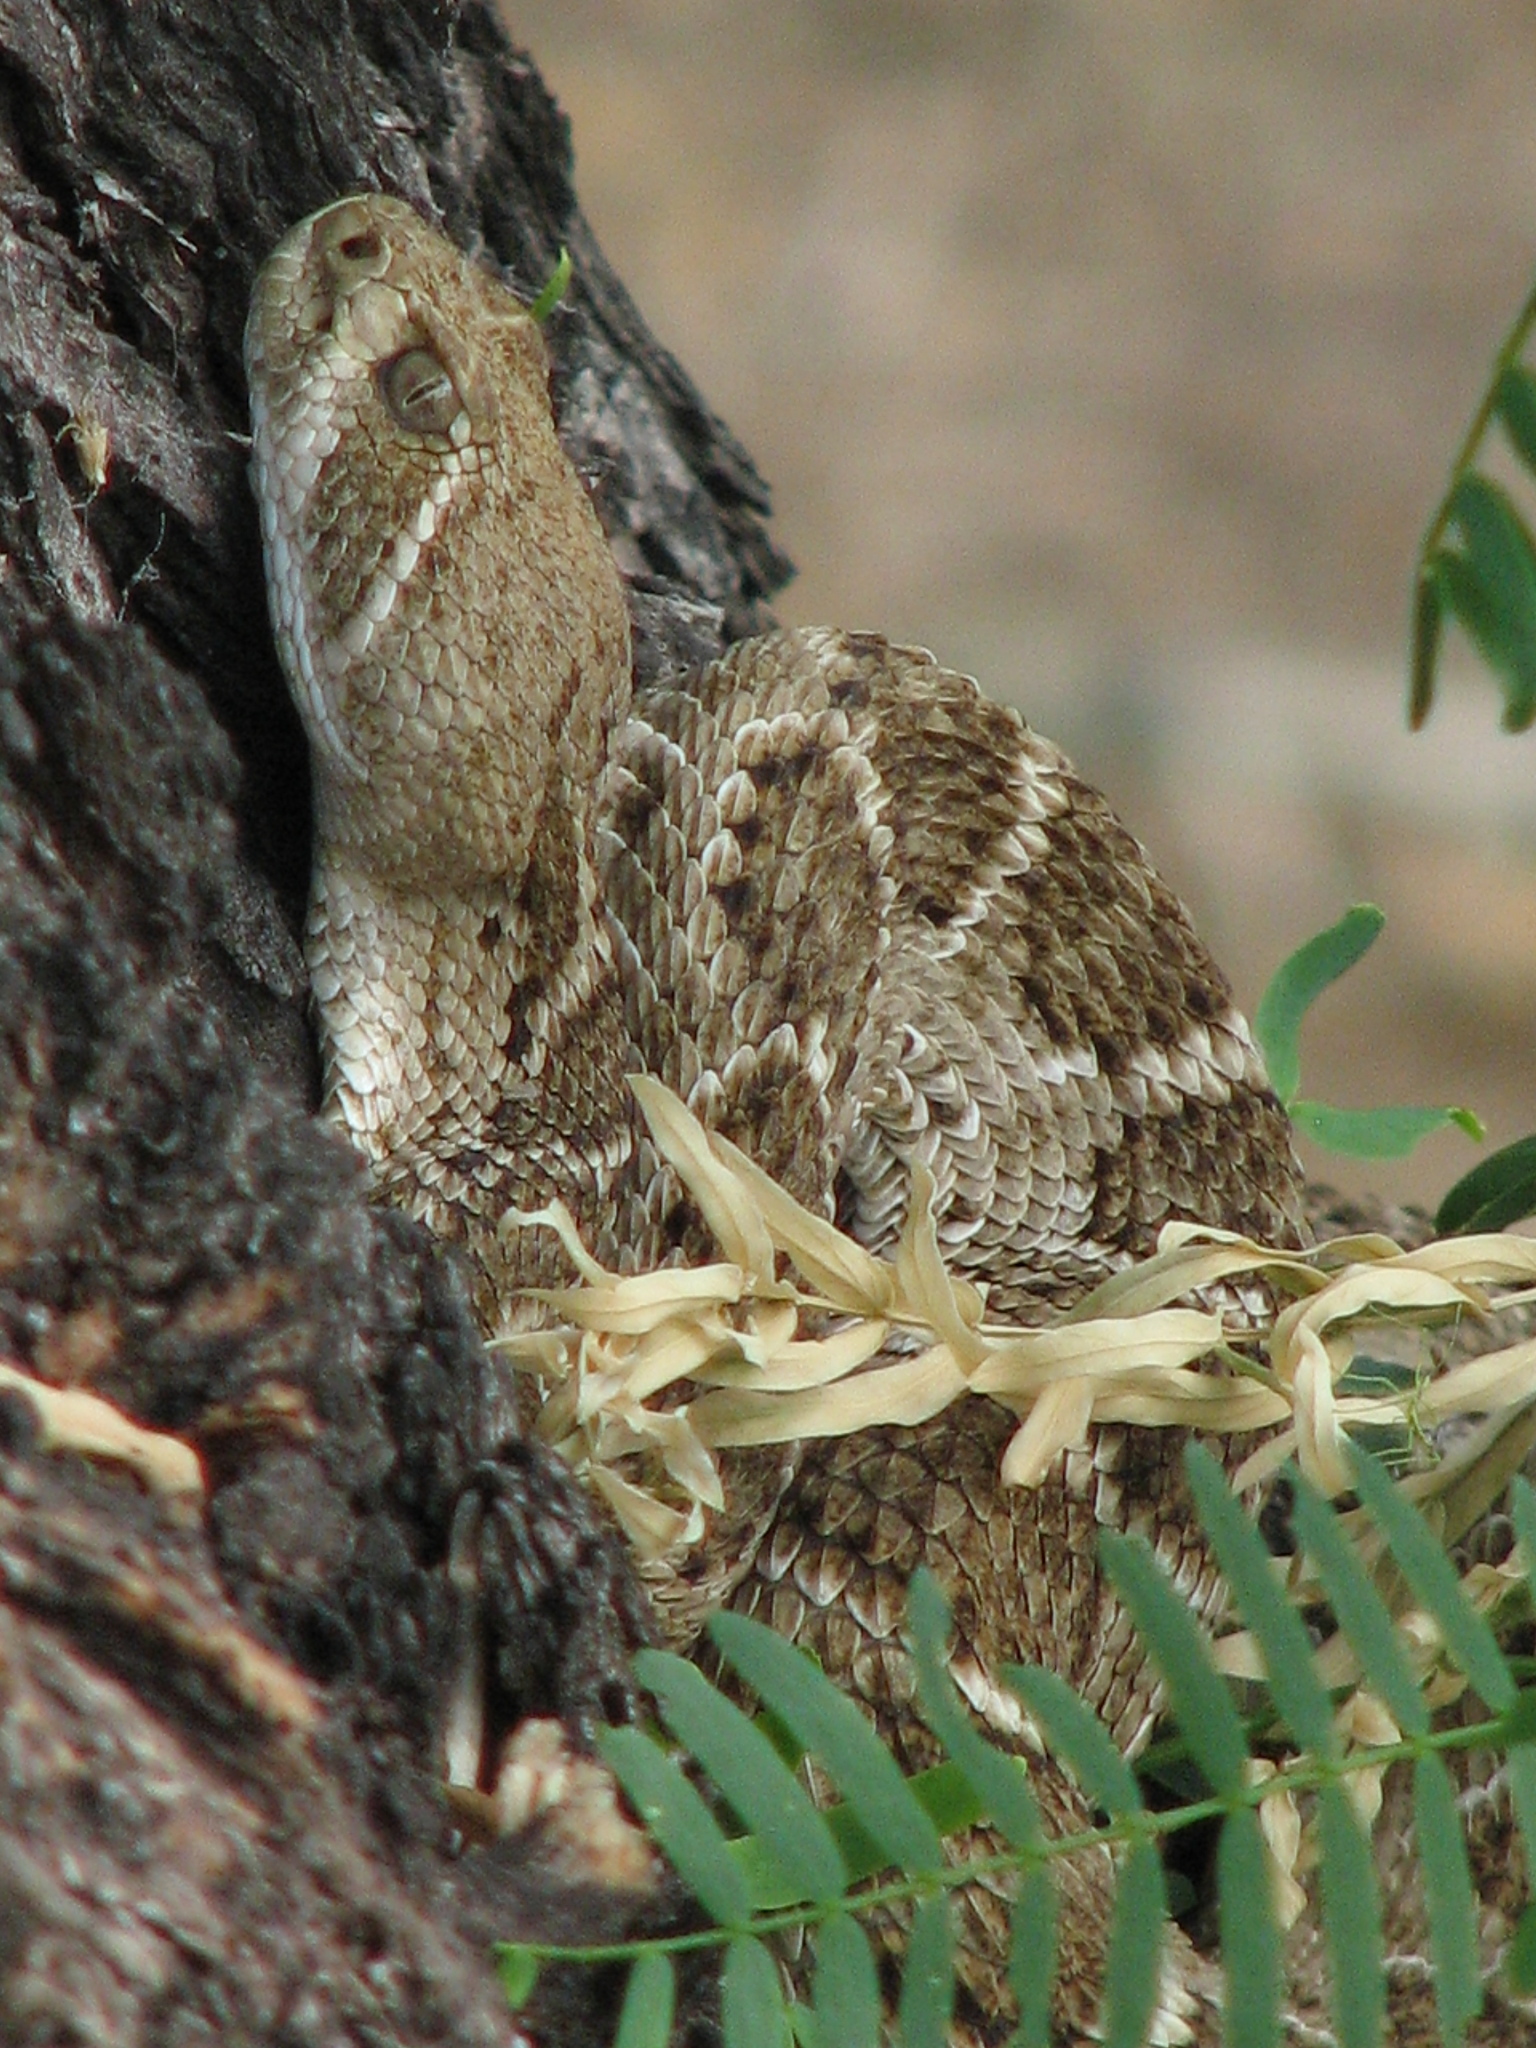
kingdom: Animalia
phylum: Chordata
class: Squamata
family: Viperidae
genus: Crotalus
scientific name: Crotalus atrox
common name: Western diamond-backed rattlesnake
